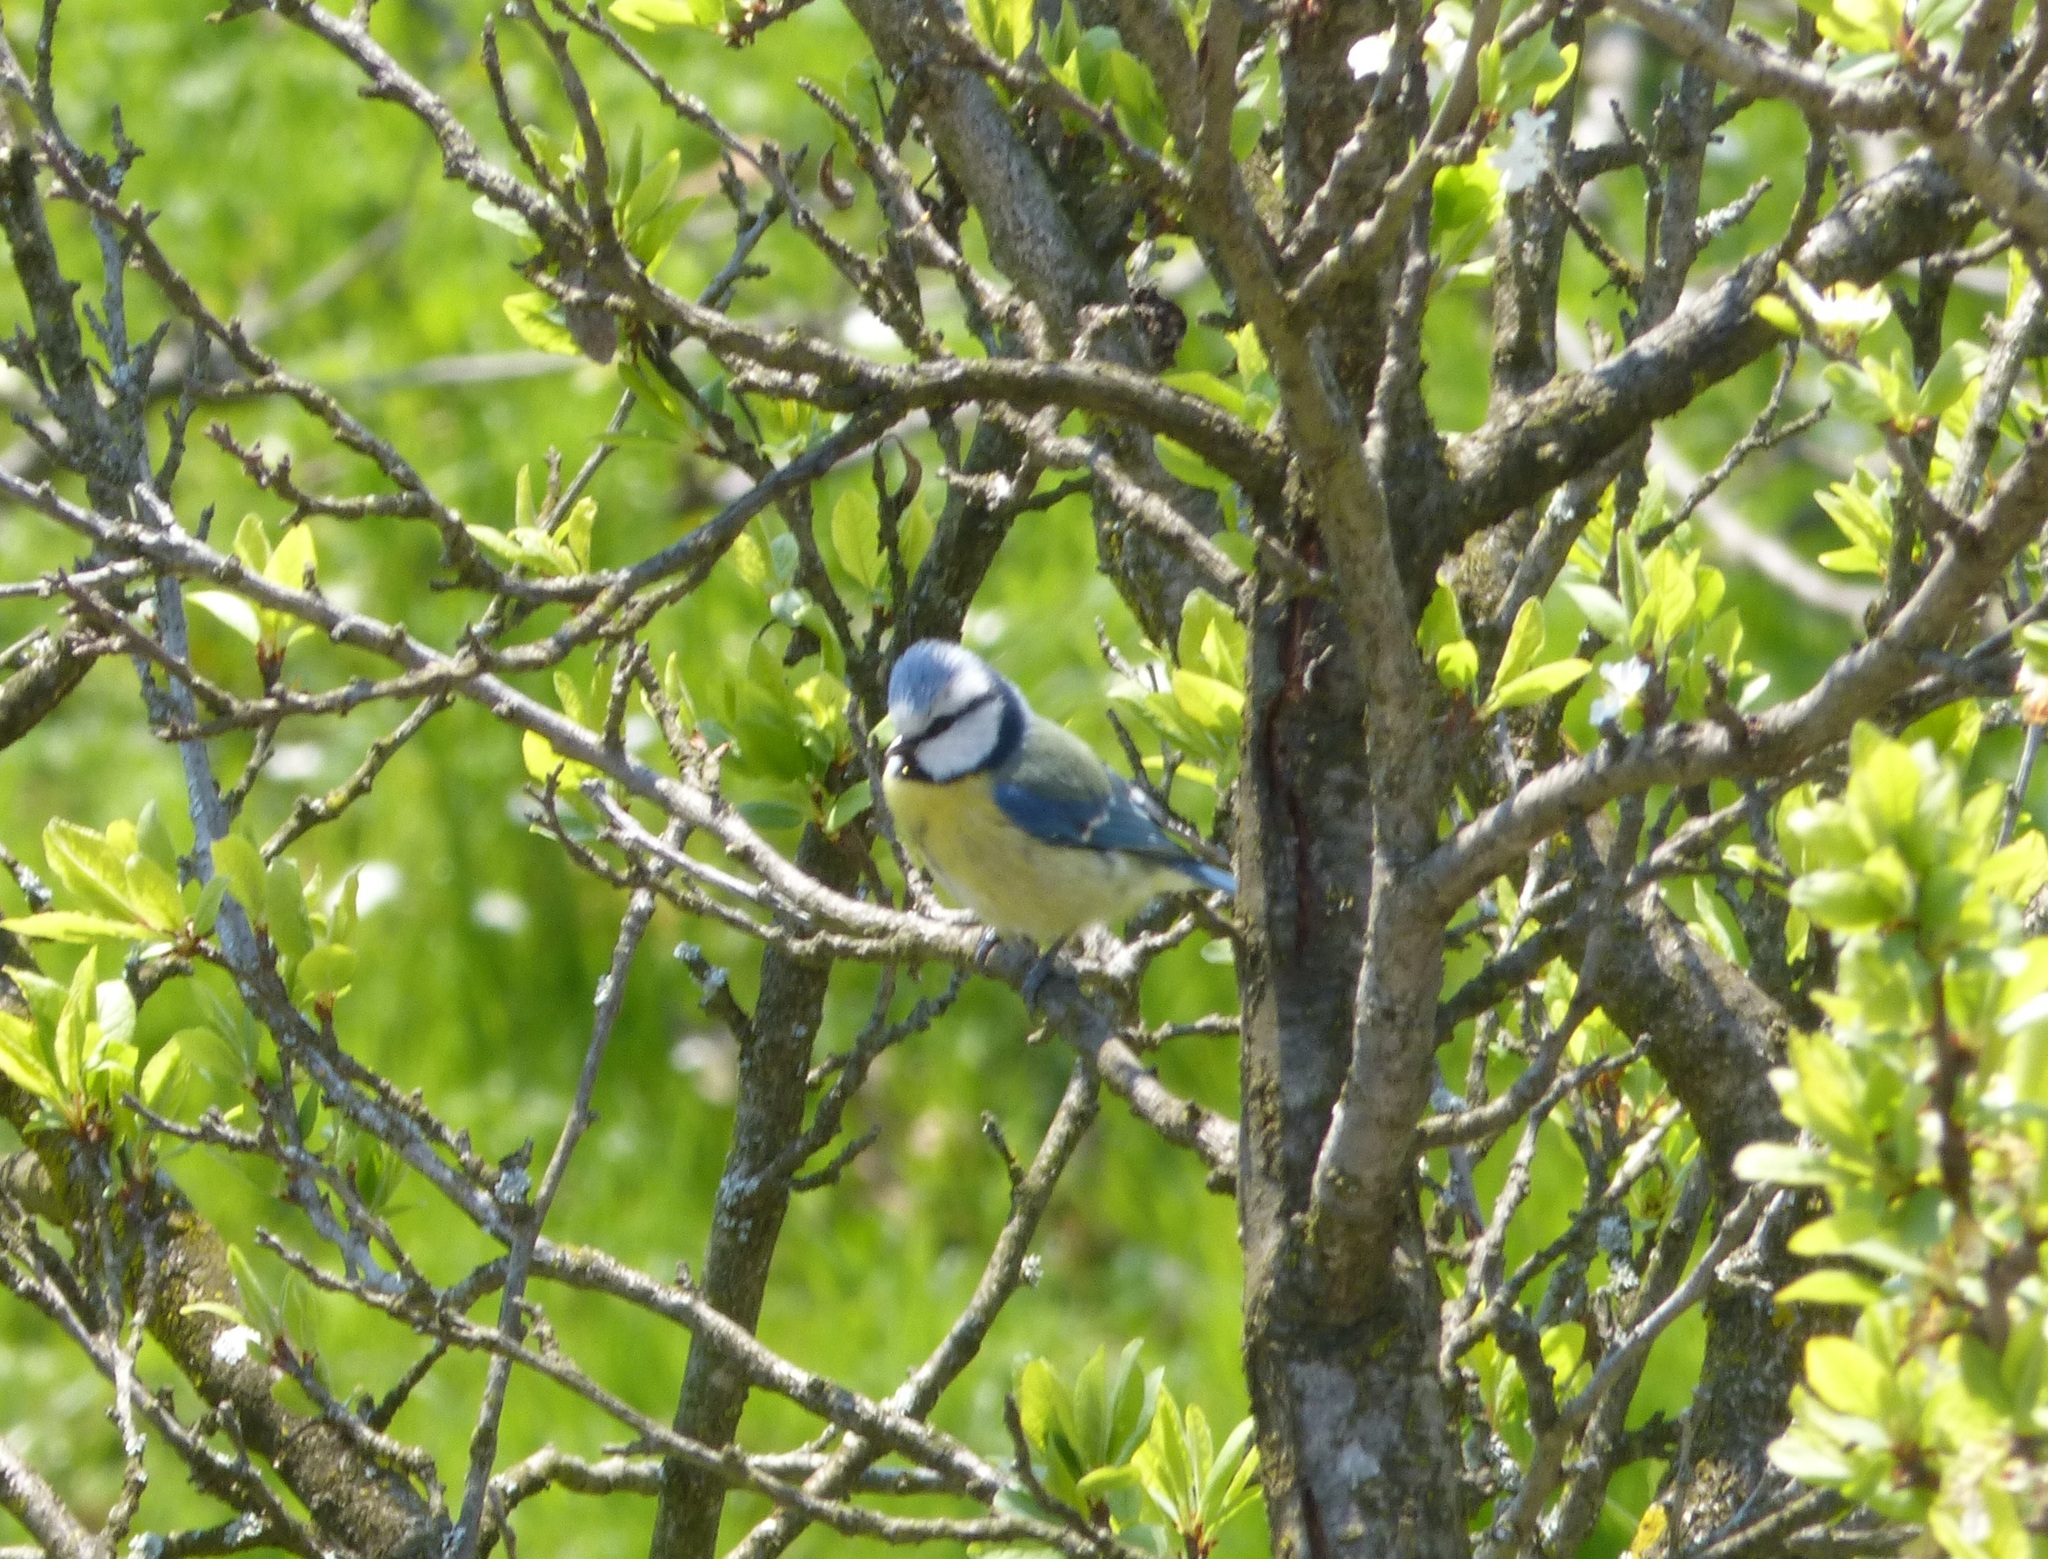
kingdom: Animalia
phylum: Chordata
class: Aves
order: Passeriformes
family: Paridae
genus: Cyanistes
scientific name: Cyanistes caeruleus
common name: Eurasian blue tit
